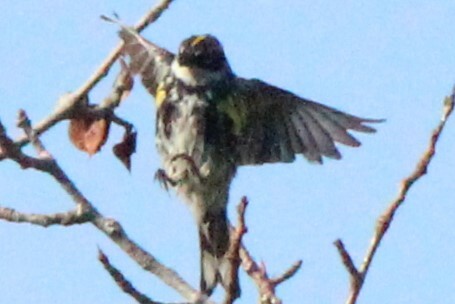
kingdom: Animalia
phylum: Chordata
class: Aves
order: Passeriformes
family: Parulidae
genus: Setophaga
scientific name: Setophaga coronata
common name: Myrtle warbler
